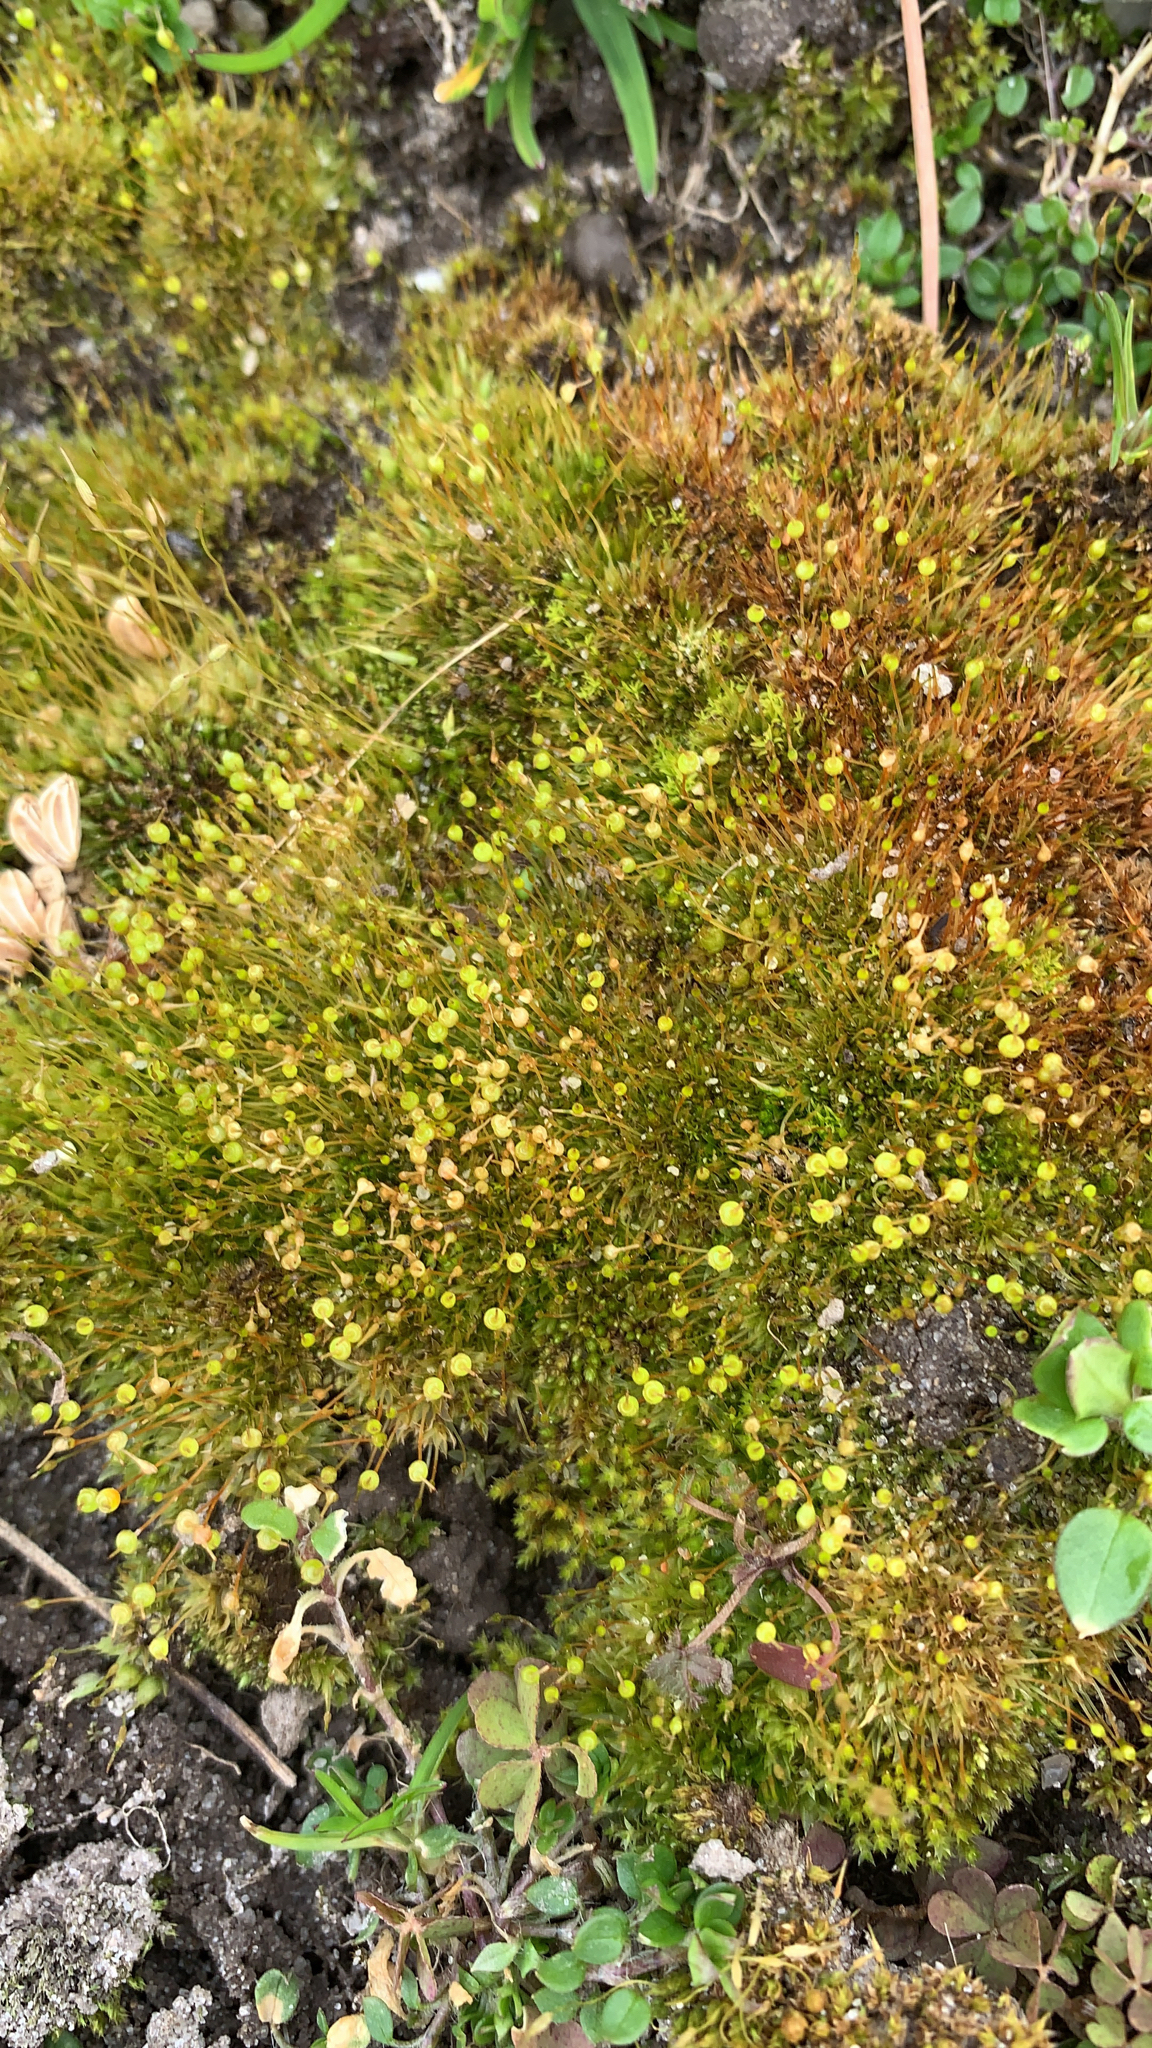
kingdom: Plantae
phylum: Bryophyta
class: Bryopsida
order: Funariales
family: Funariaceae
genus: Physcomitrium
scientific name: Physcomitrium pyriforme
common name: Common bladder-moss
